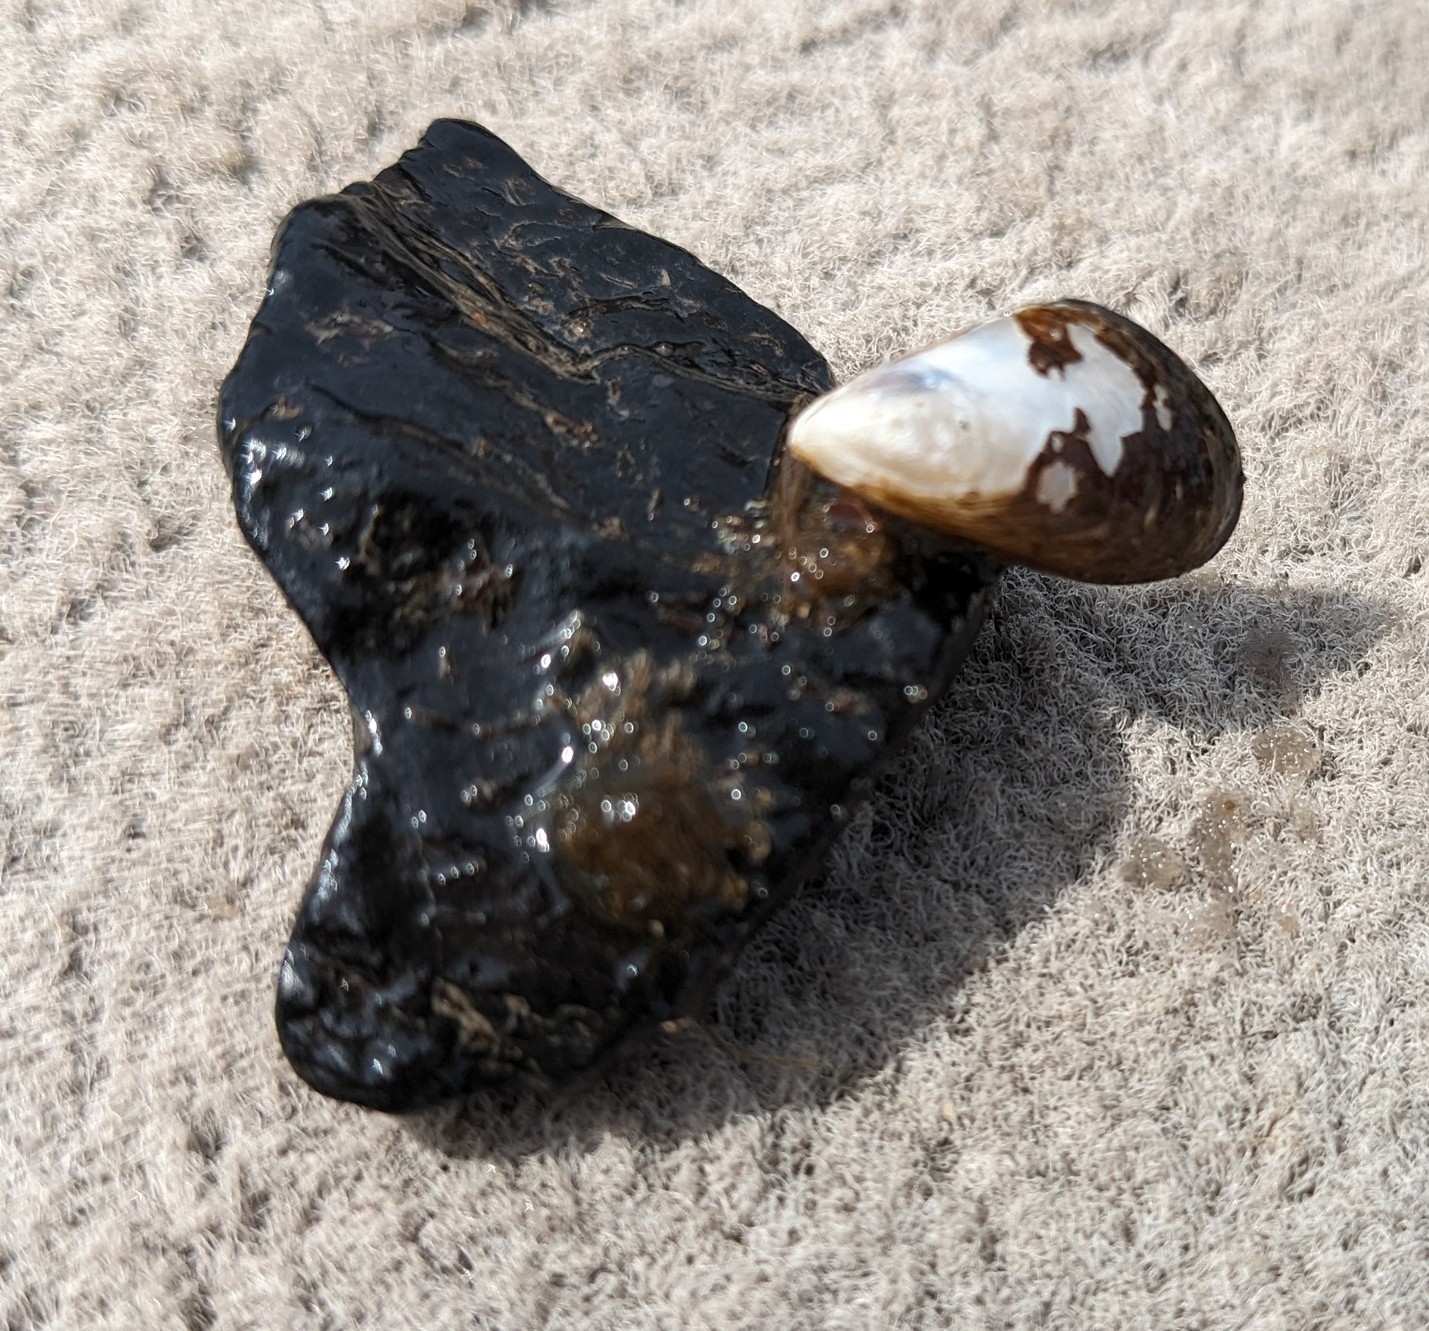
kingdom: Animalia
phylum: Mollusca
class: Bivalvia
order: Myida
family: Dreissenidae
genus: Dreissena
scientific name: Dreissena bugensis
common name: Quagga mussel
